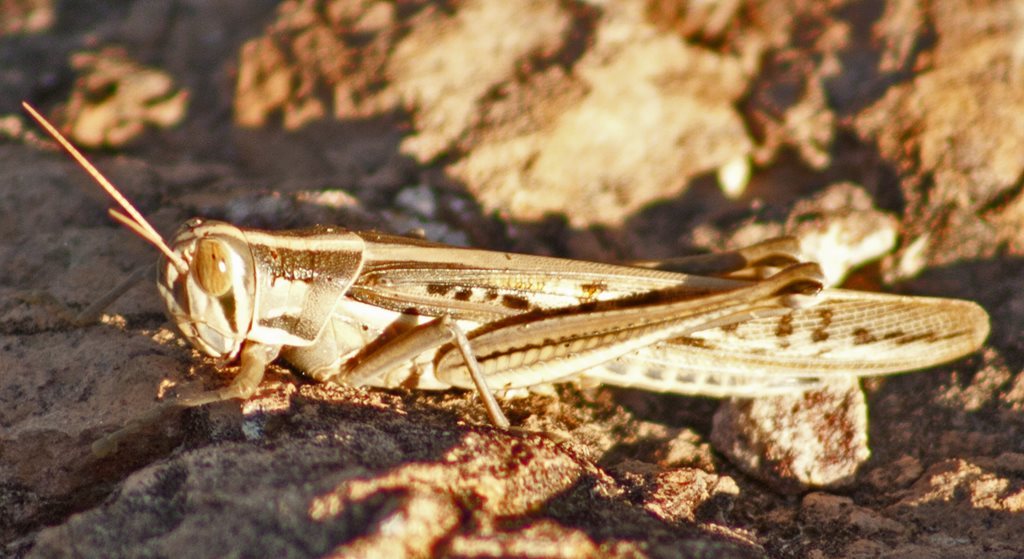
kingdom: Animalia
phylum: Arthropoda
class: Insecta
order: Orthoptera
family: Acrididae
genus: Austracris
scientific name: Austracris guttulosa
